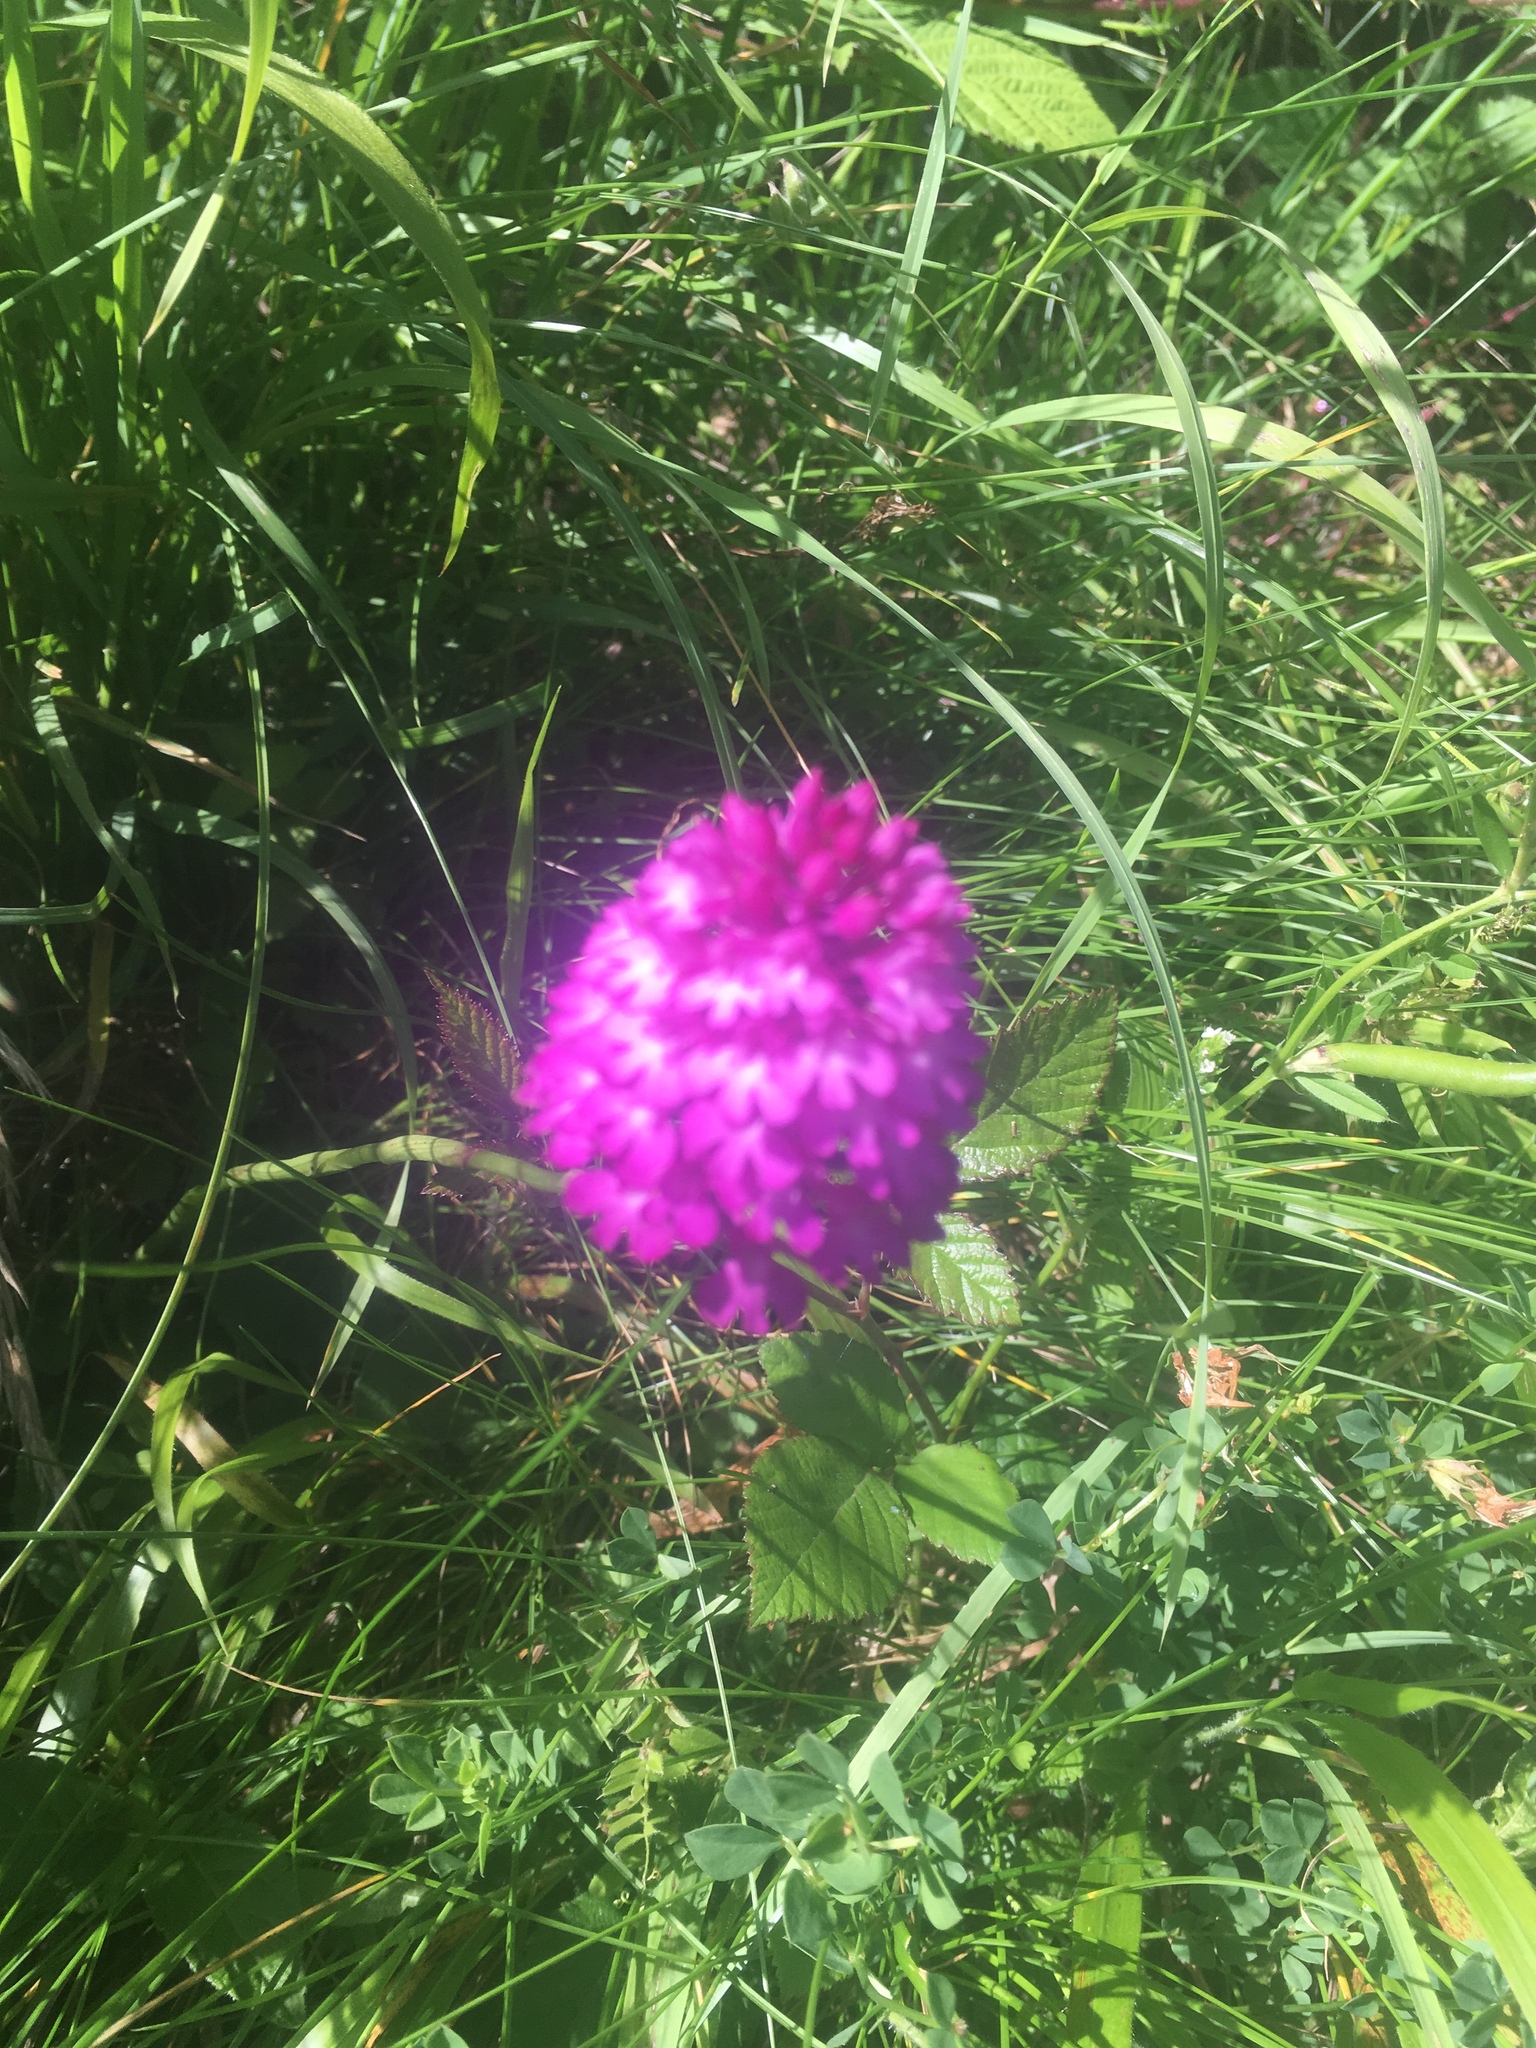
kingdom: Plantae
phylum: Tracheophyta
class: Liliopsida
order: Asparagales
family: Orchidaceae
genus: Anacamptis
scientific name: Anacamptis pyramidalis
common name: Pyramidal orchid
